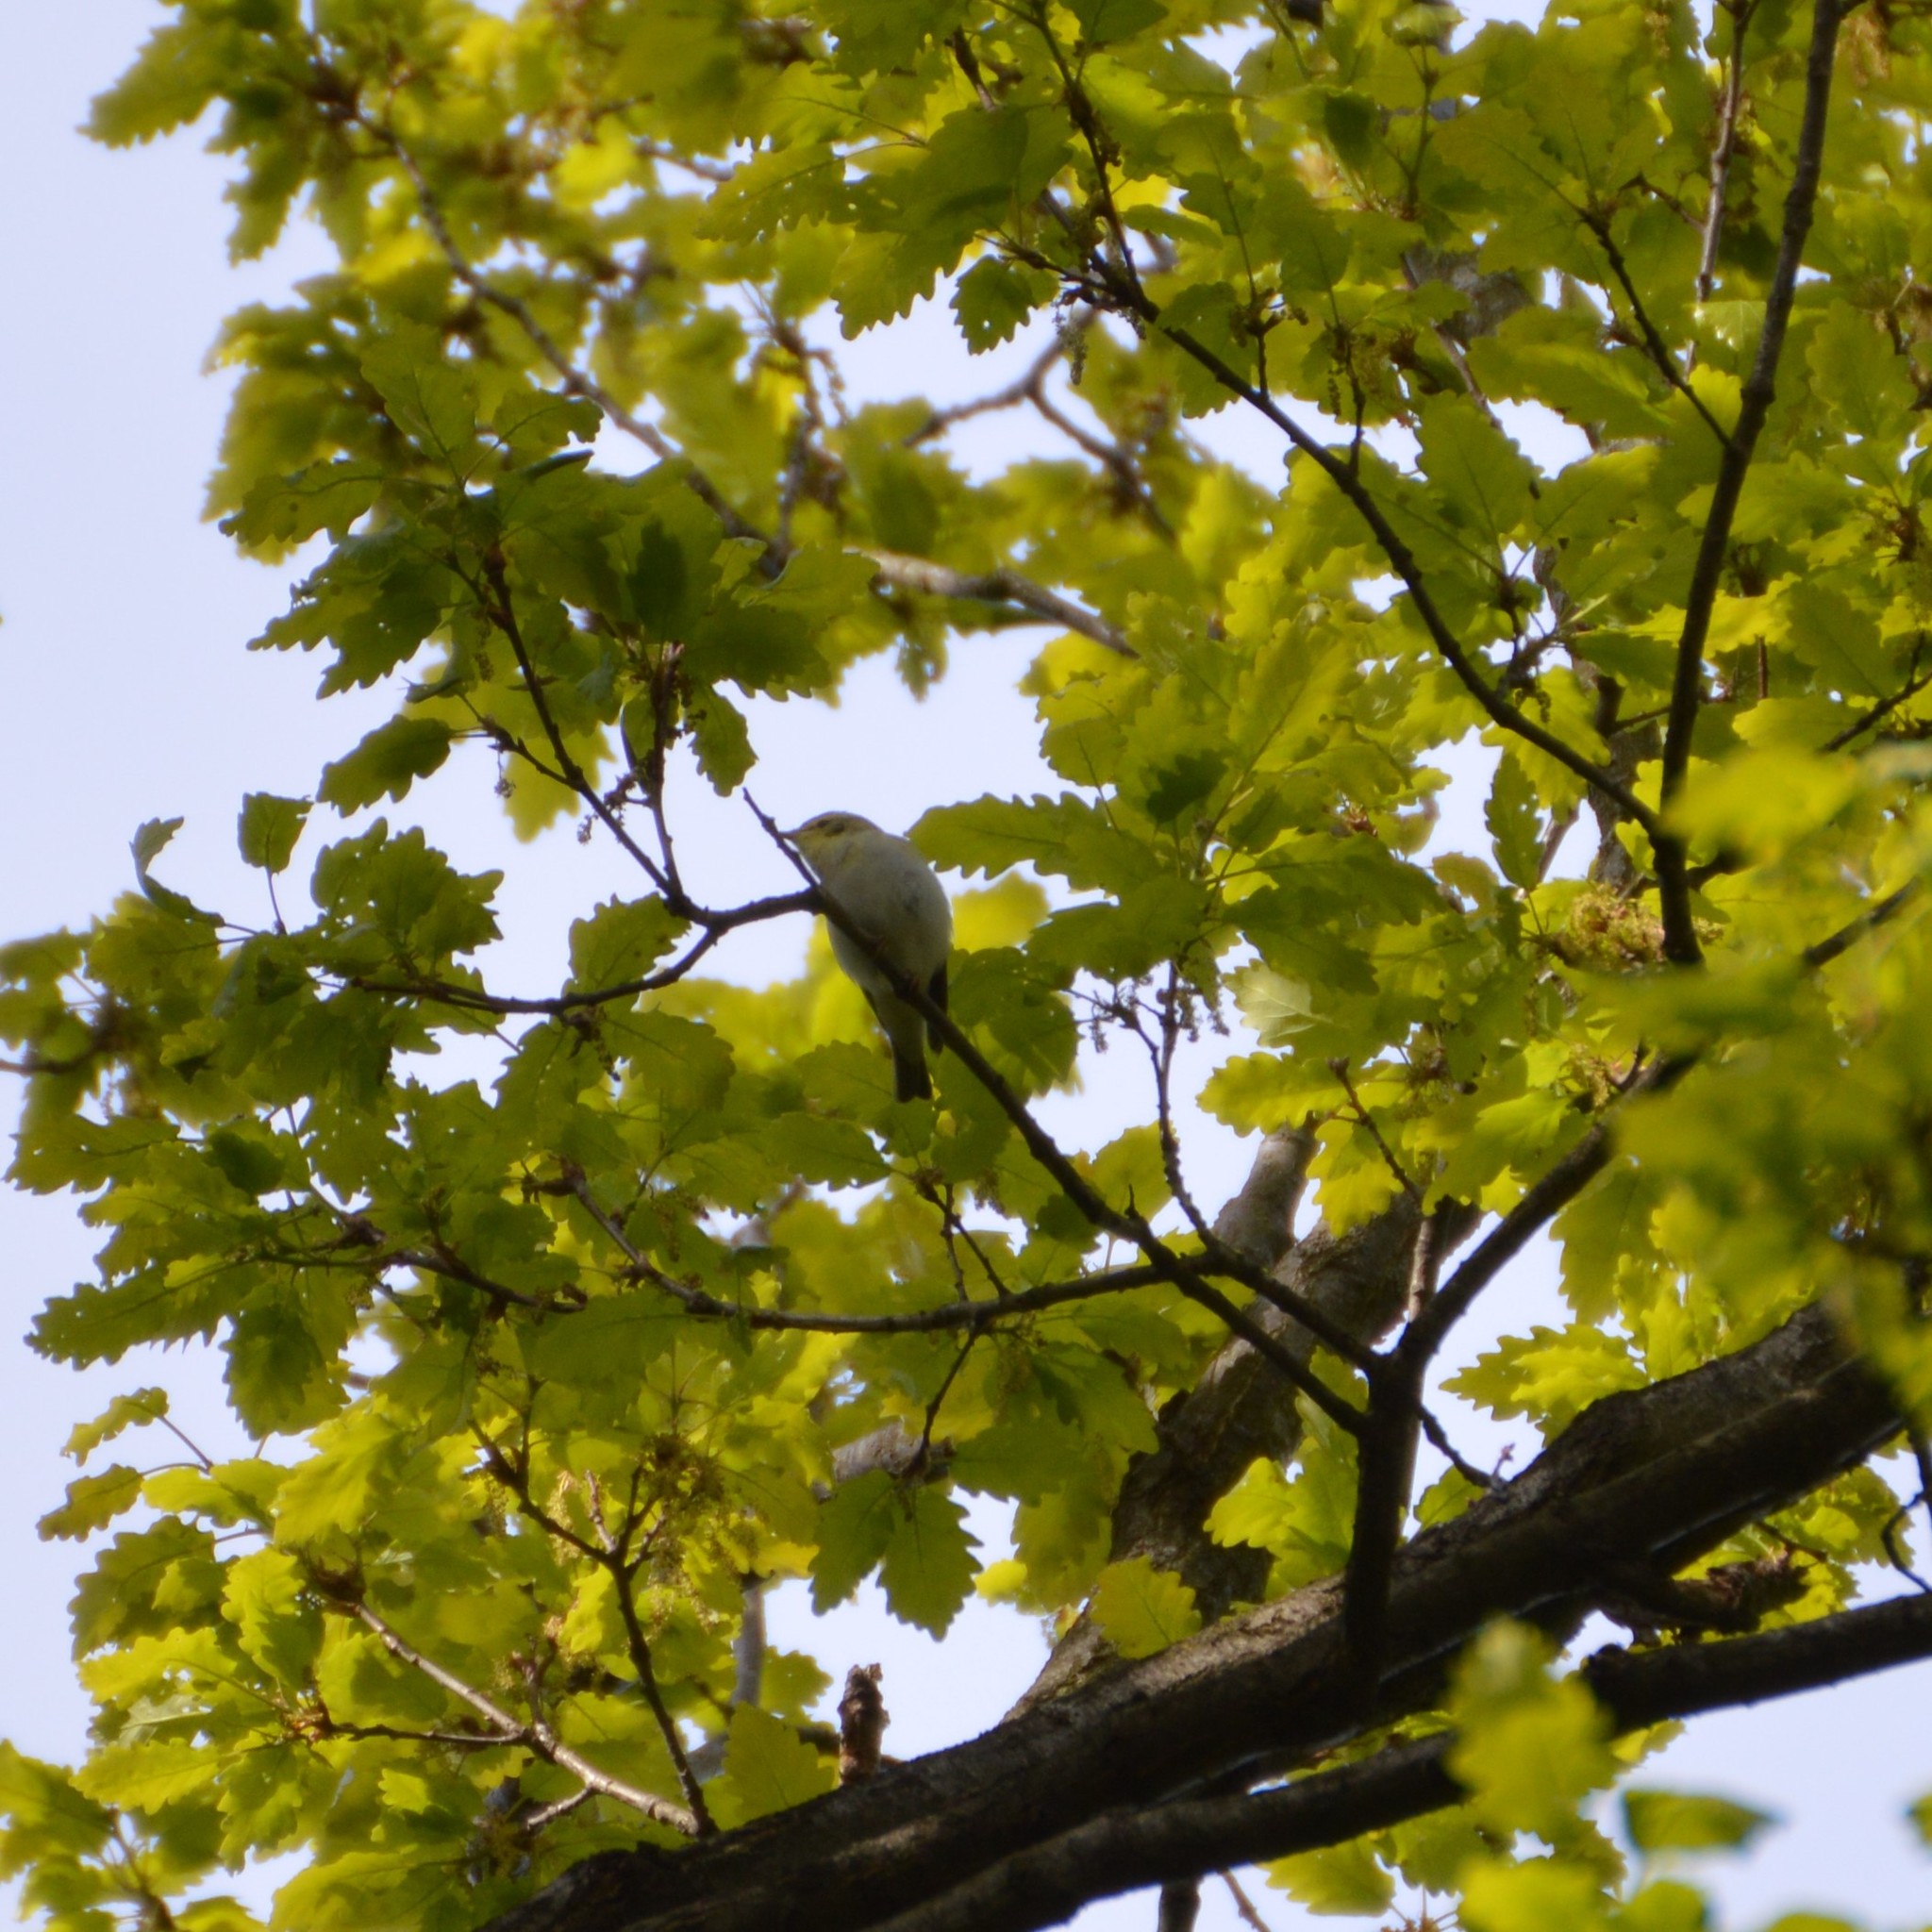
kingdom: Animalia
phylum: Chordata
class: Aves
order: Passeriformes
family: Phylloscopidae
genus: Phylloscopus
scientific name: Phylloscopus sibillatrix
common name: Wood warbler
